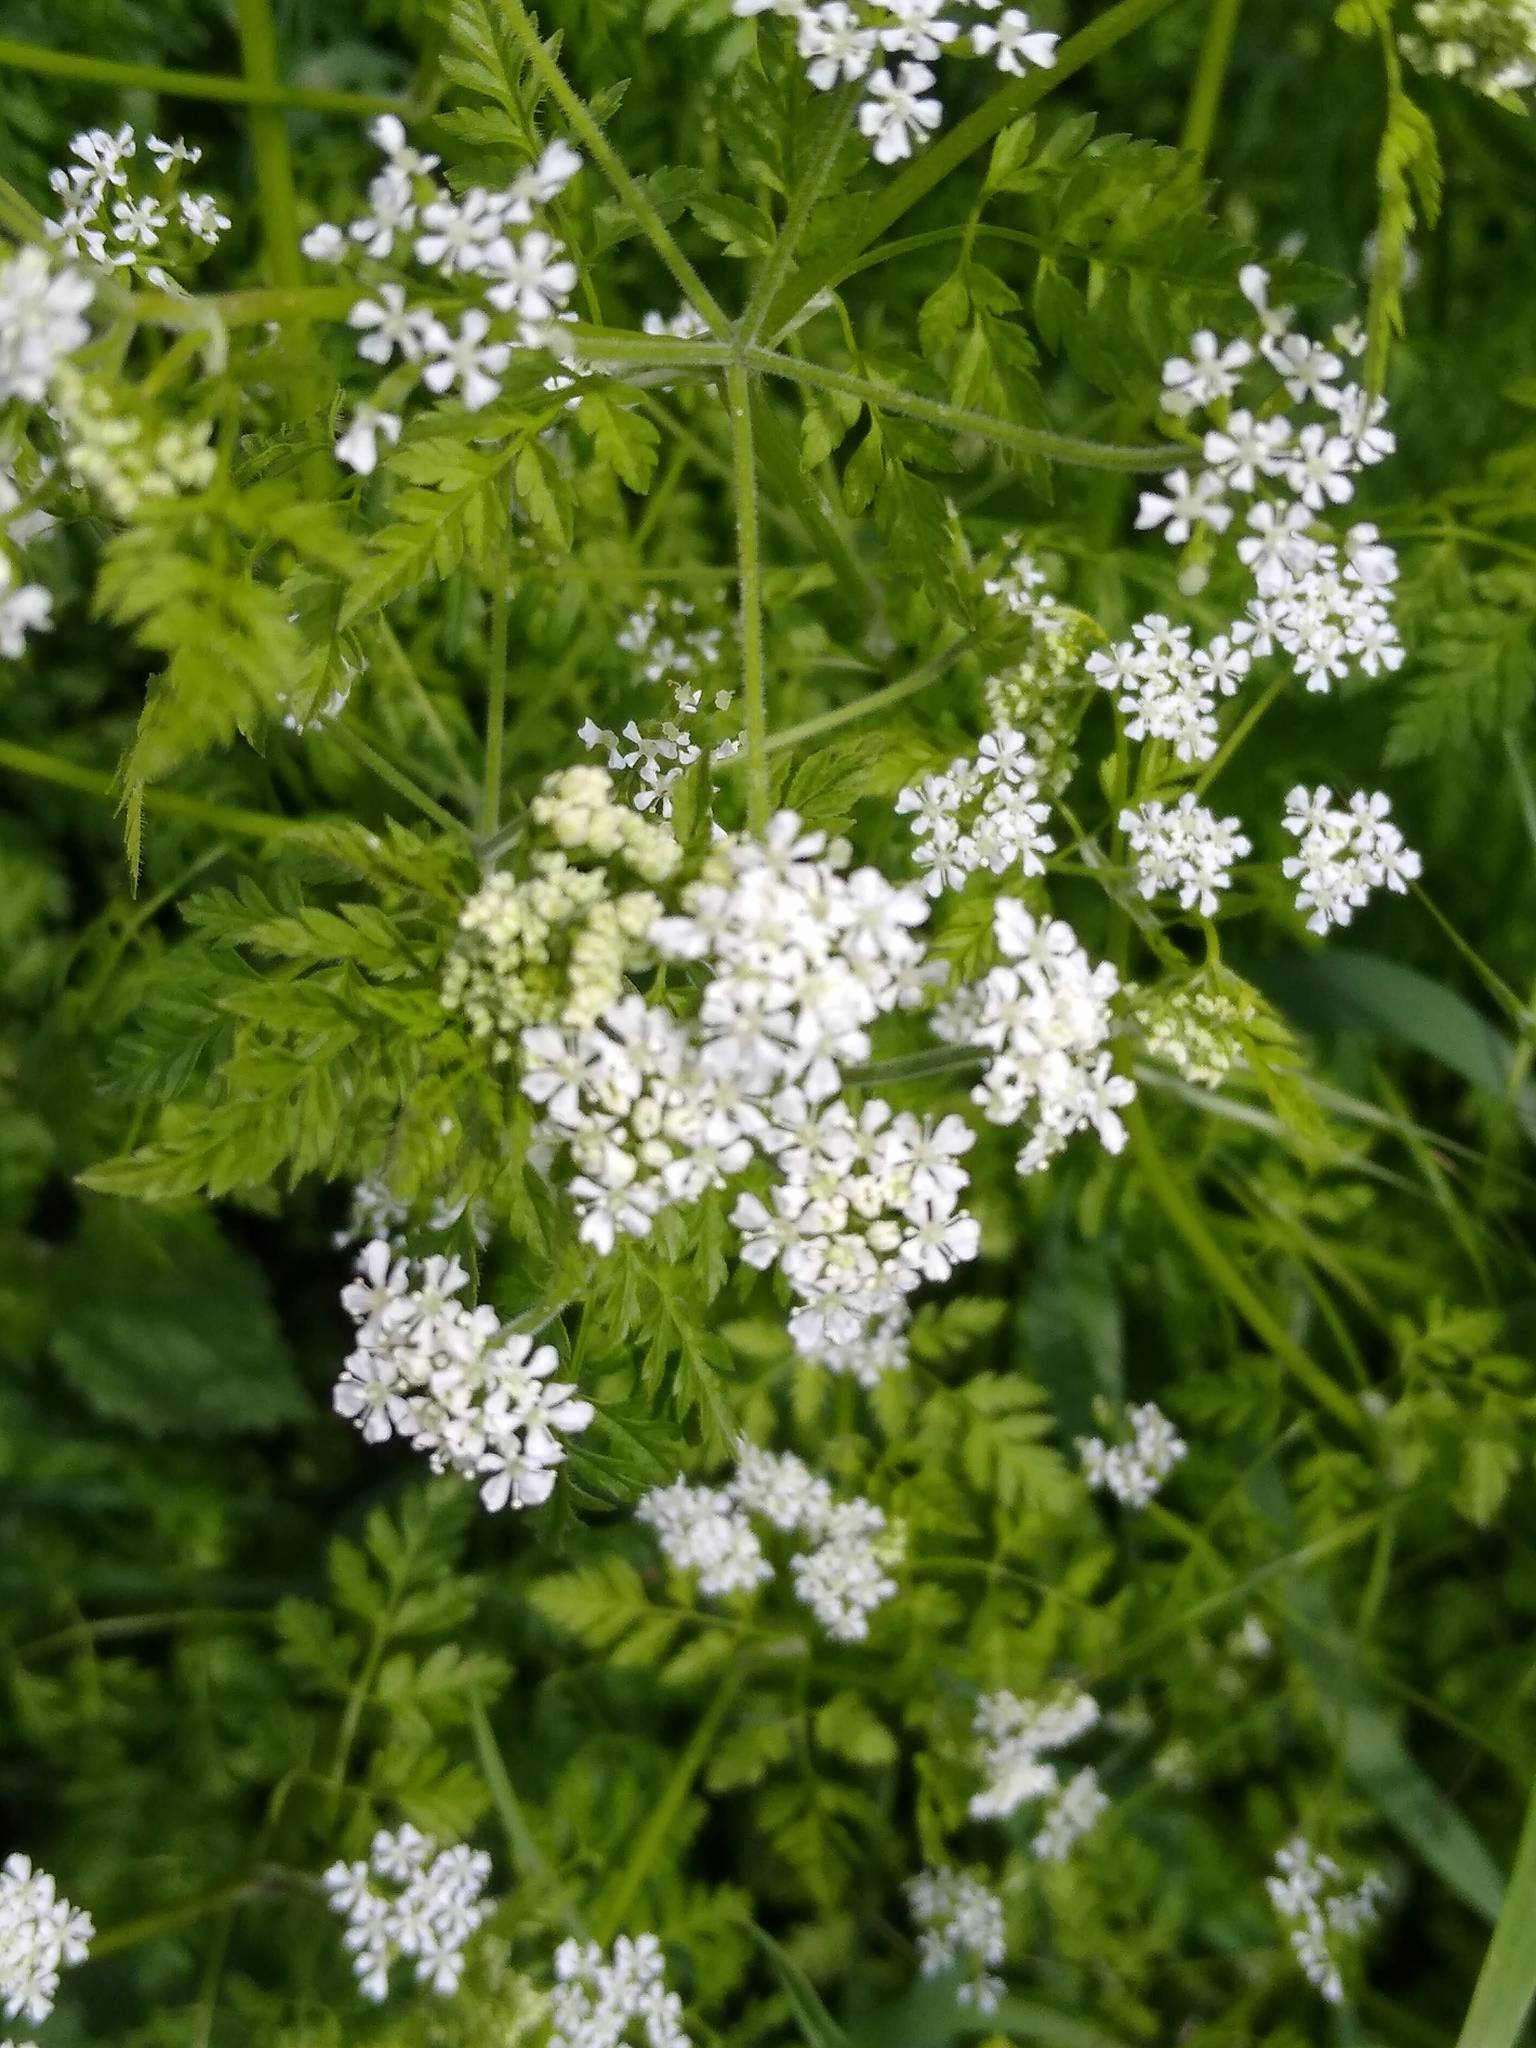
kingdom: Plantae
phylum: Tracheophyta
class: Magnoliopsida
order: Apiales
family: Apiaceae
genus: Anthriscus
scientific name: Anthriscus sylvestris
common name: Cow parsley
